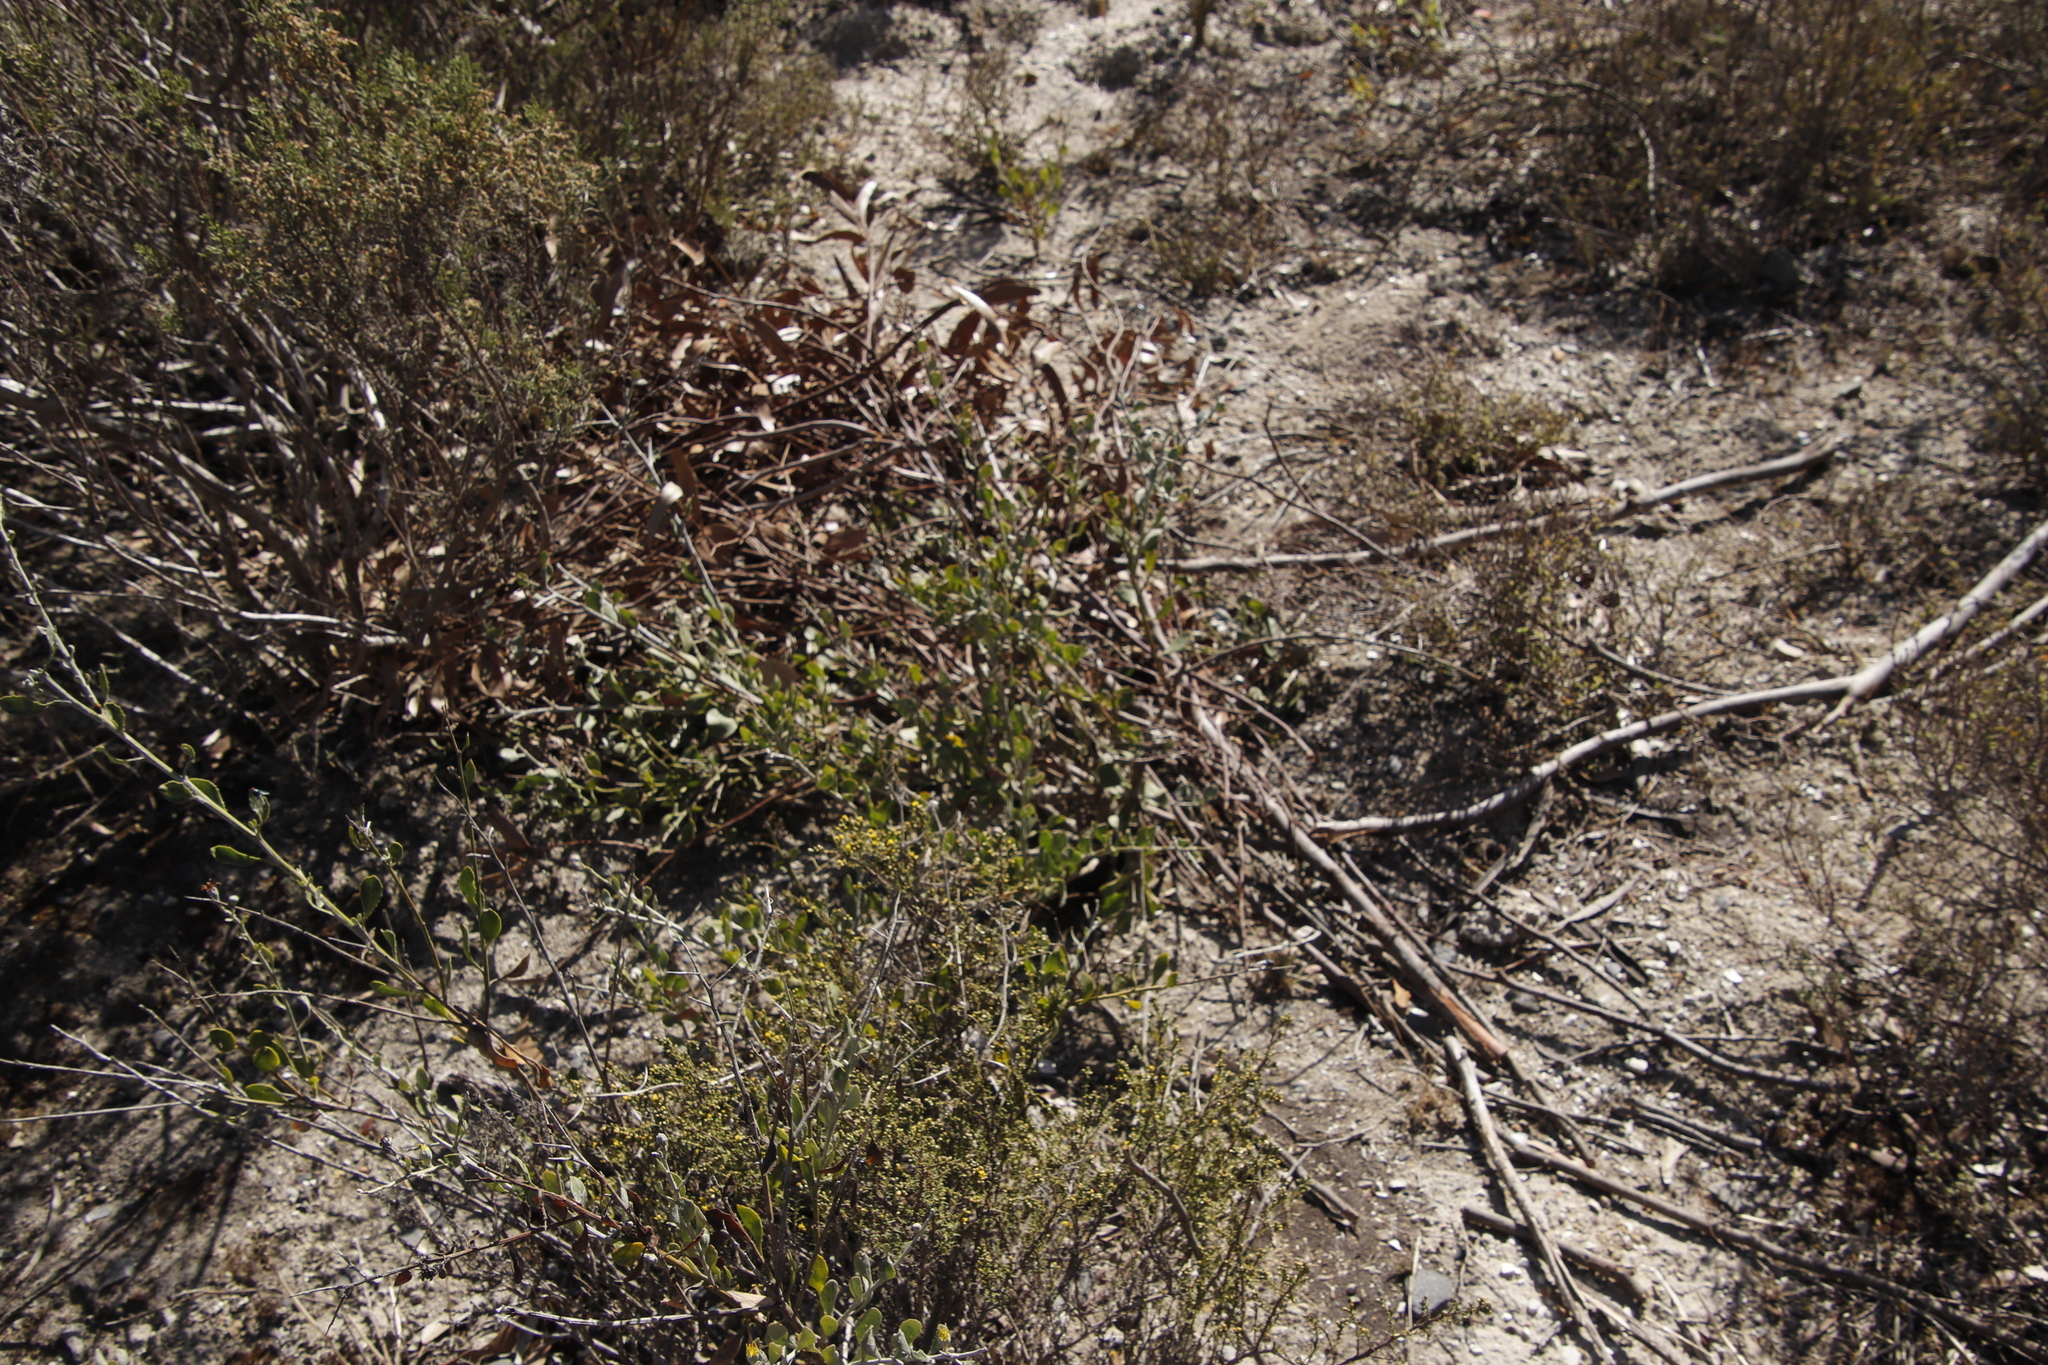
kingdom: Plantae
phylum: Tracheophyta
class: Magnoliopsida
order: Asterales
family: Asteraceae
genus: Marasmodes
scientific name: Marasmodes fasciculata
